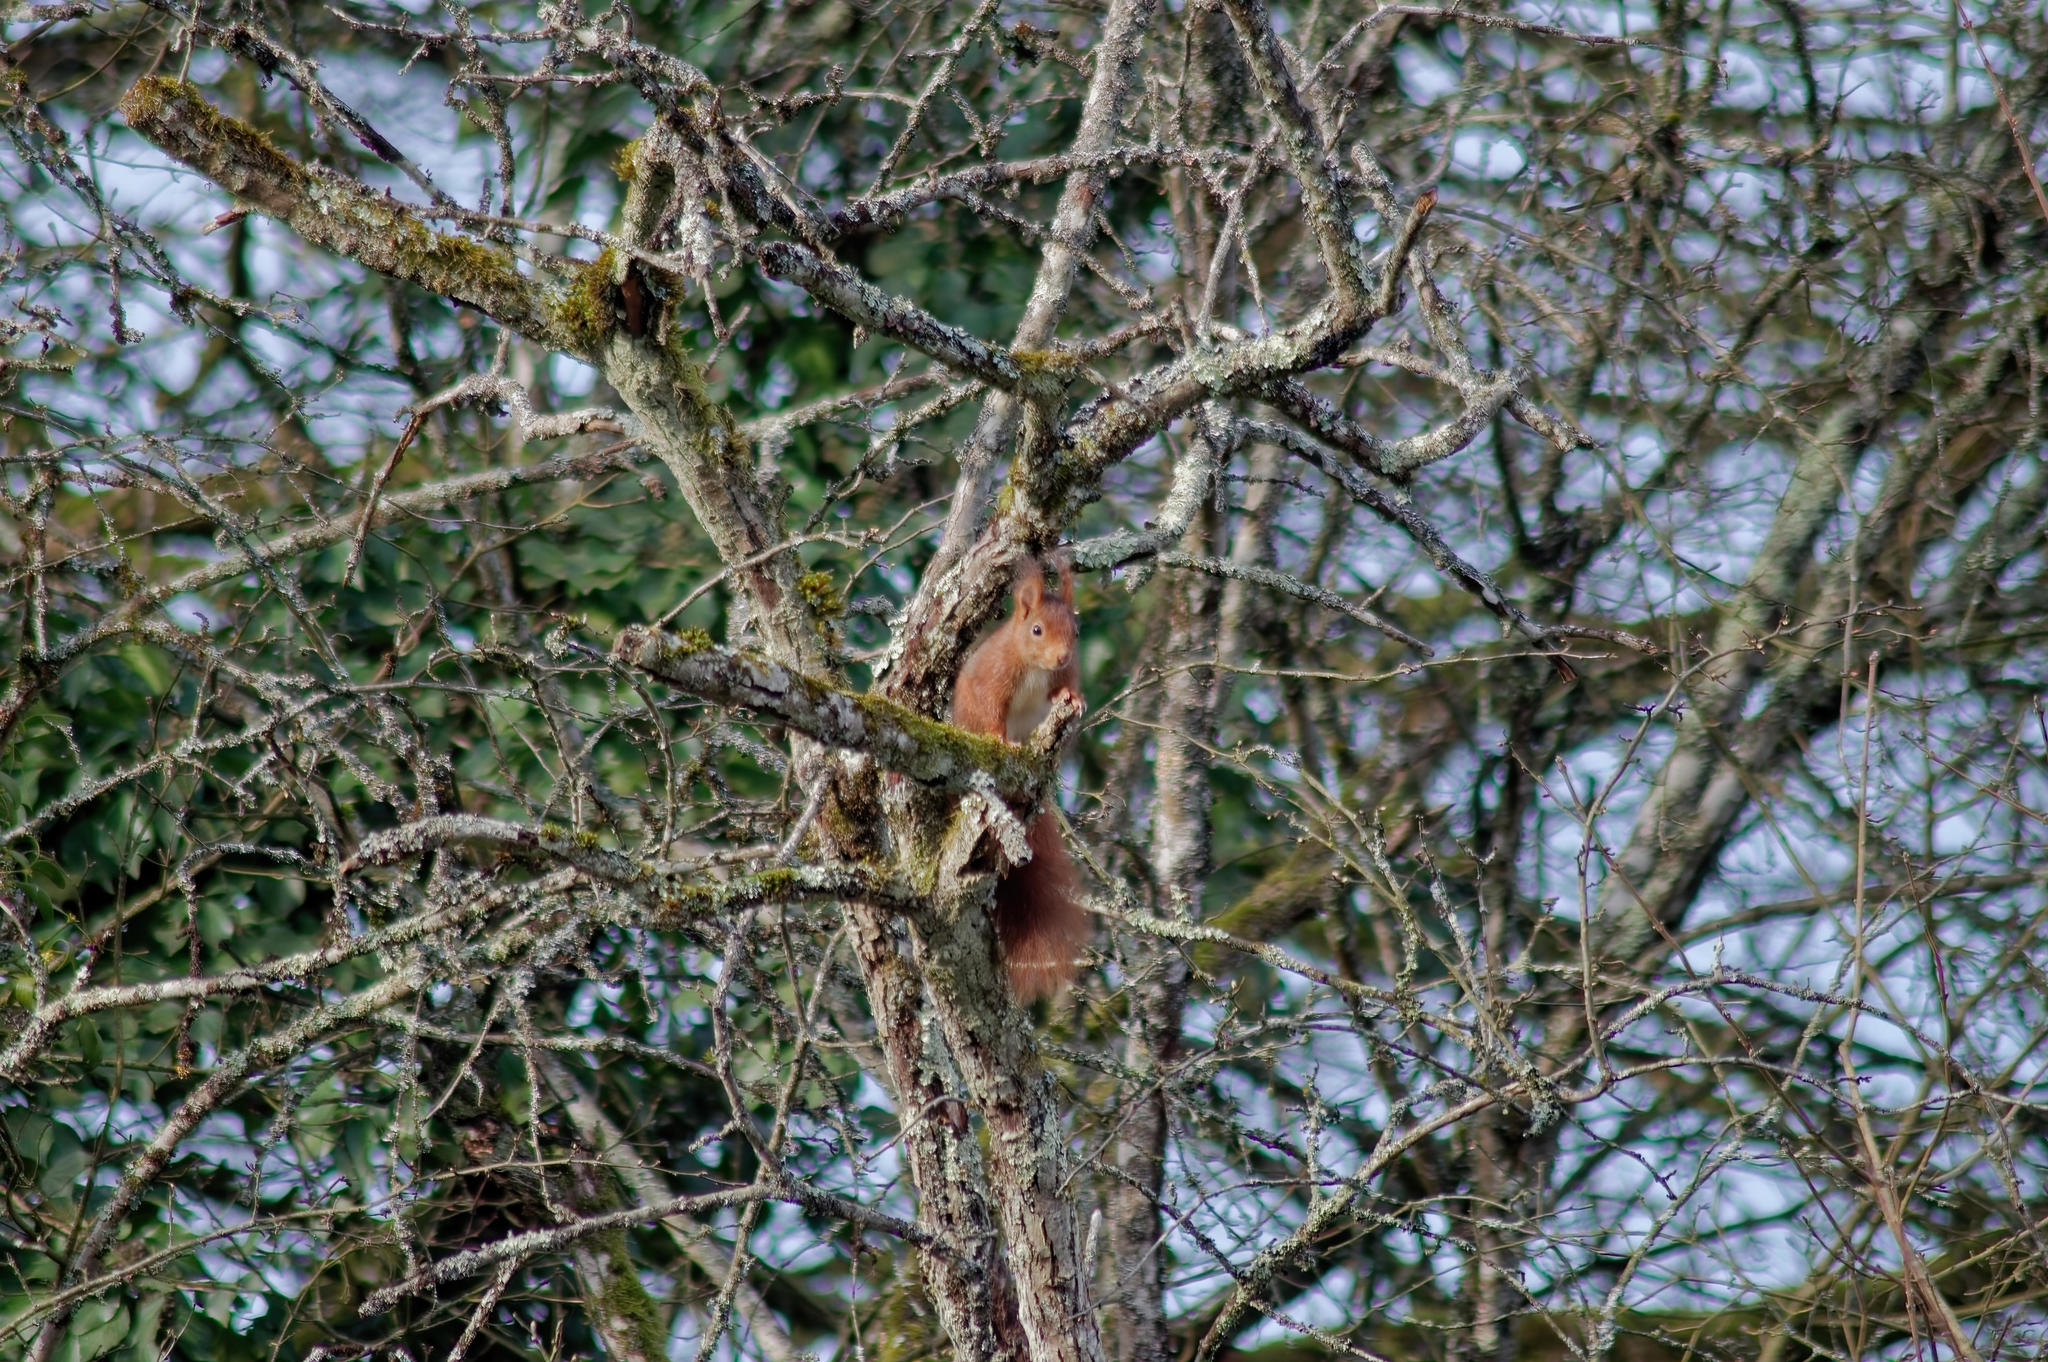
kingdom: Animalia
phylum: Chordata
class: Mammalia
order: Rodentia
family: Sciuridae
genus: Sciurus
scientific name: Sciurus vulgaris
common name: Eurasian red squirrel
